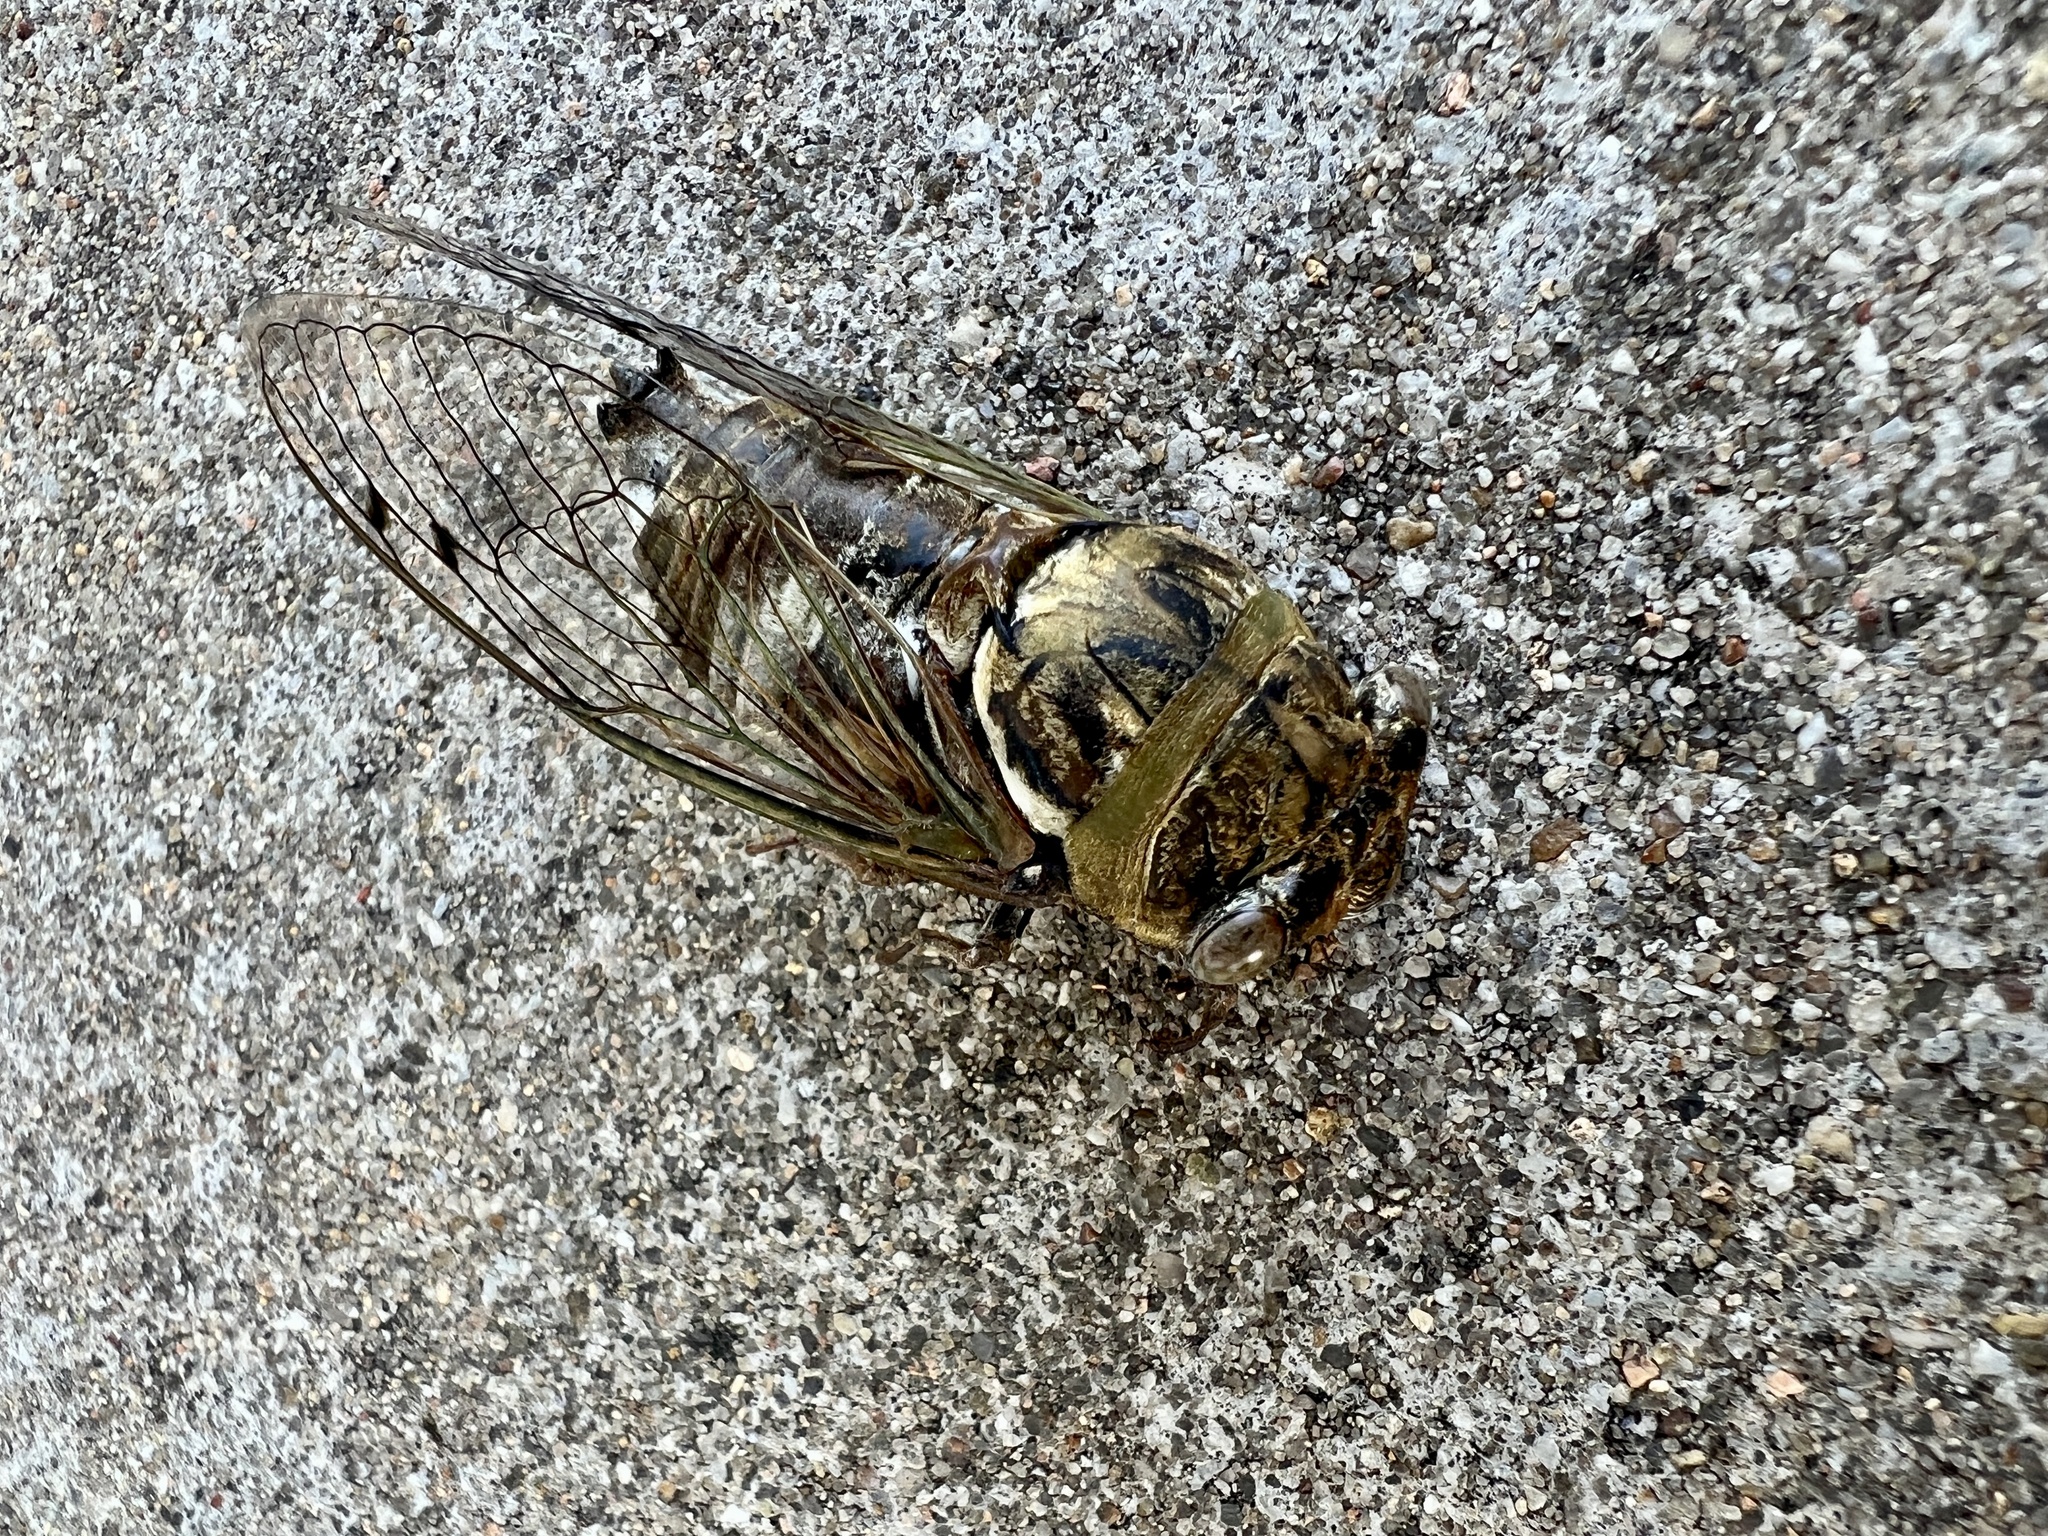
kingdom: Animalia
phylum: Arthropoda
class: Insecta
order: Hemiptera
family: Cicadidae
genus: Megatibicen
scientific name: Megatibicen resh
